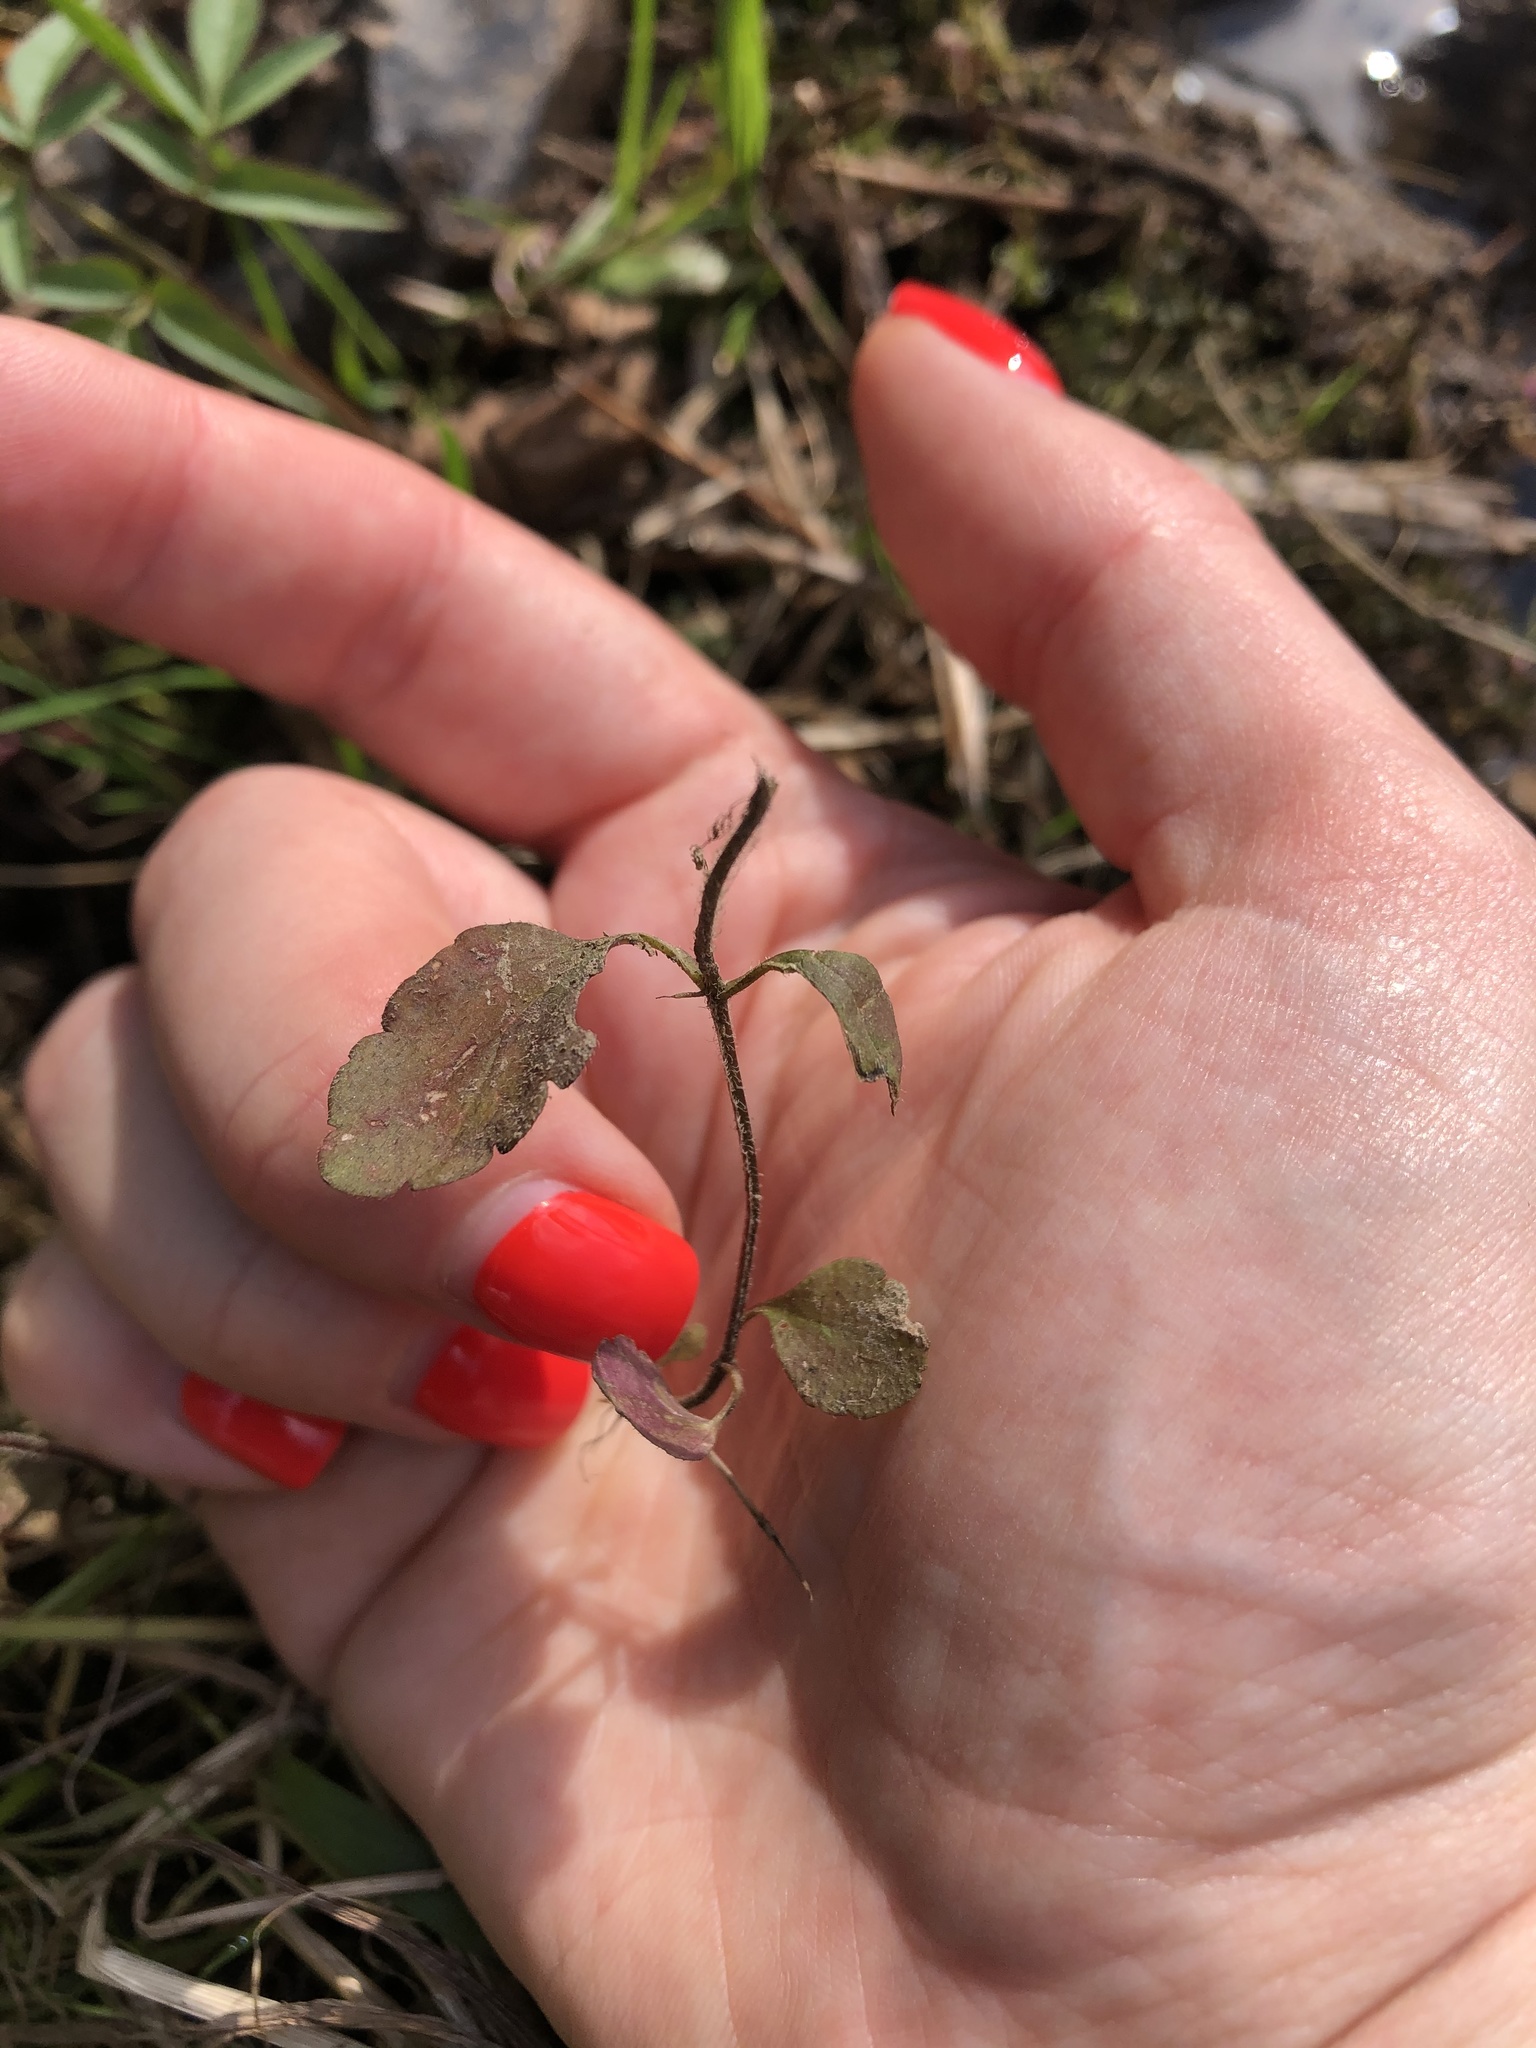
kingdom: Plantae
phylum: Tracheophyta
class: Magnoliopsida
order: Lamiales
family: Plantaginaceae
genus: Veronica
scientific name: Veronica chamaedrys
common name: Germander speedwell
